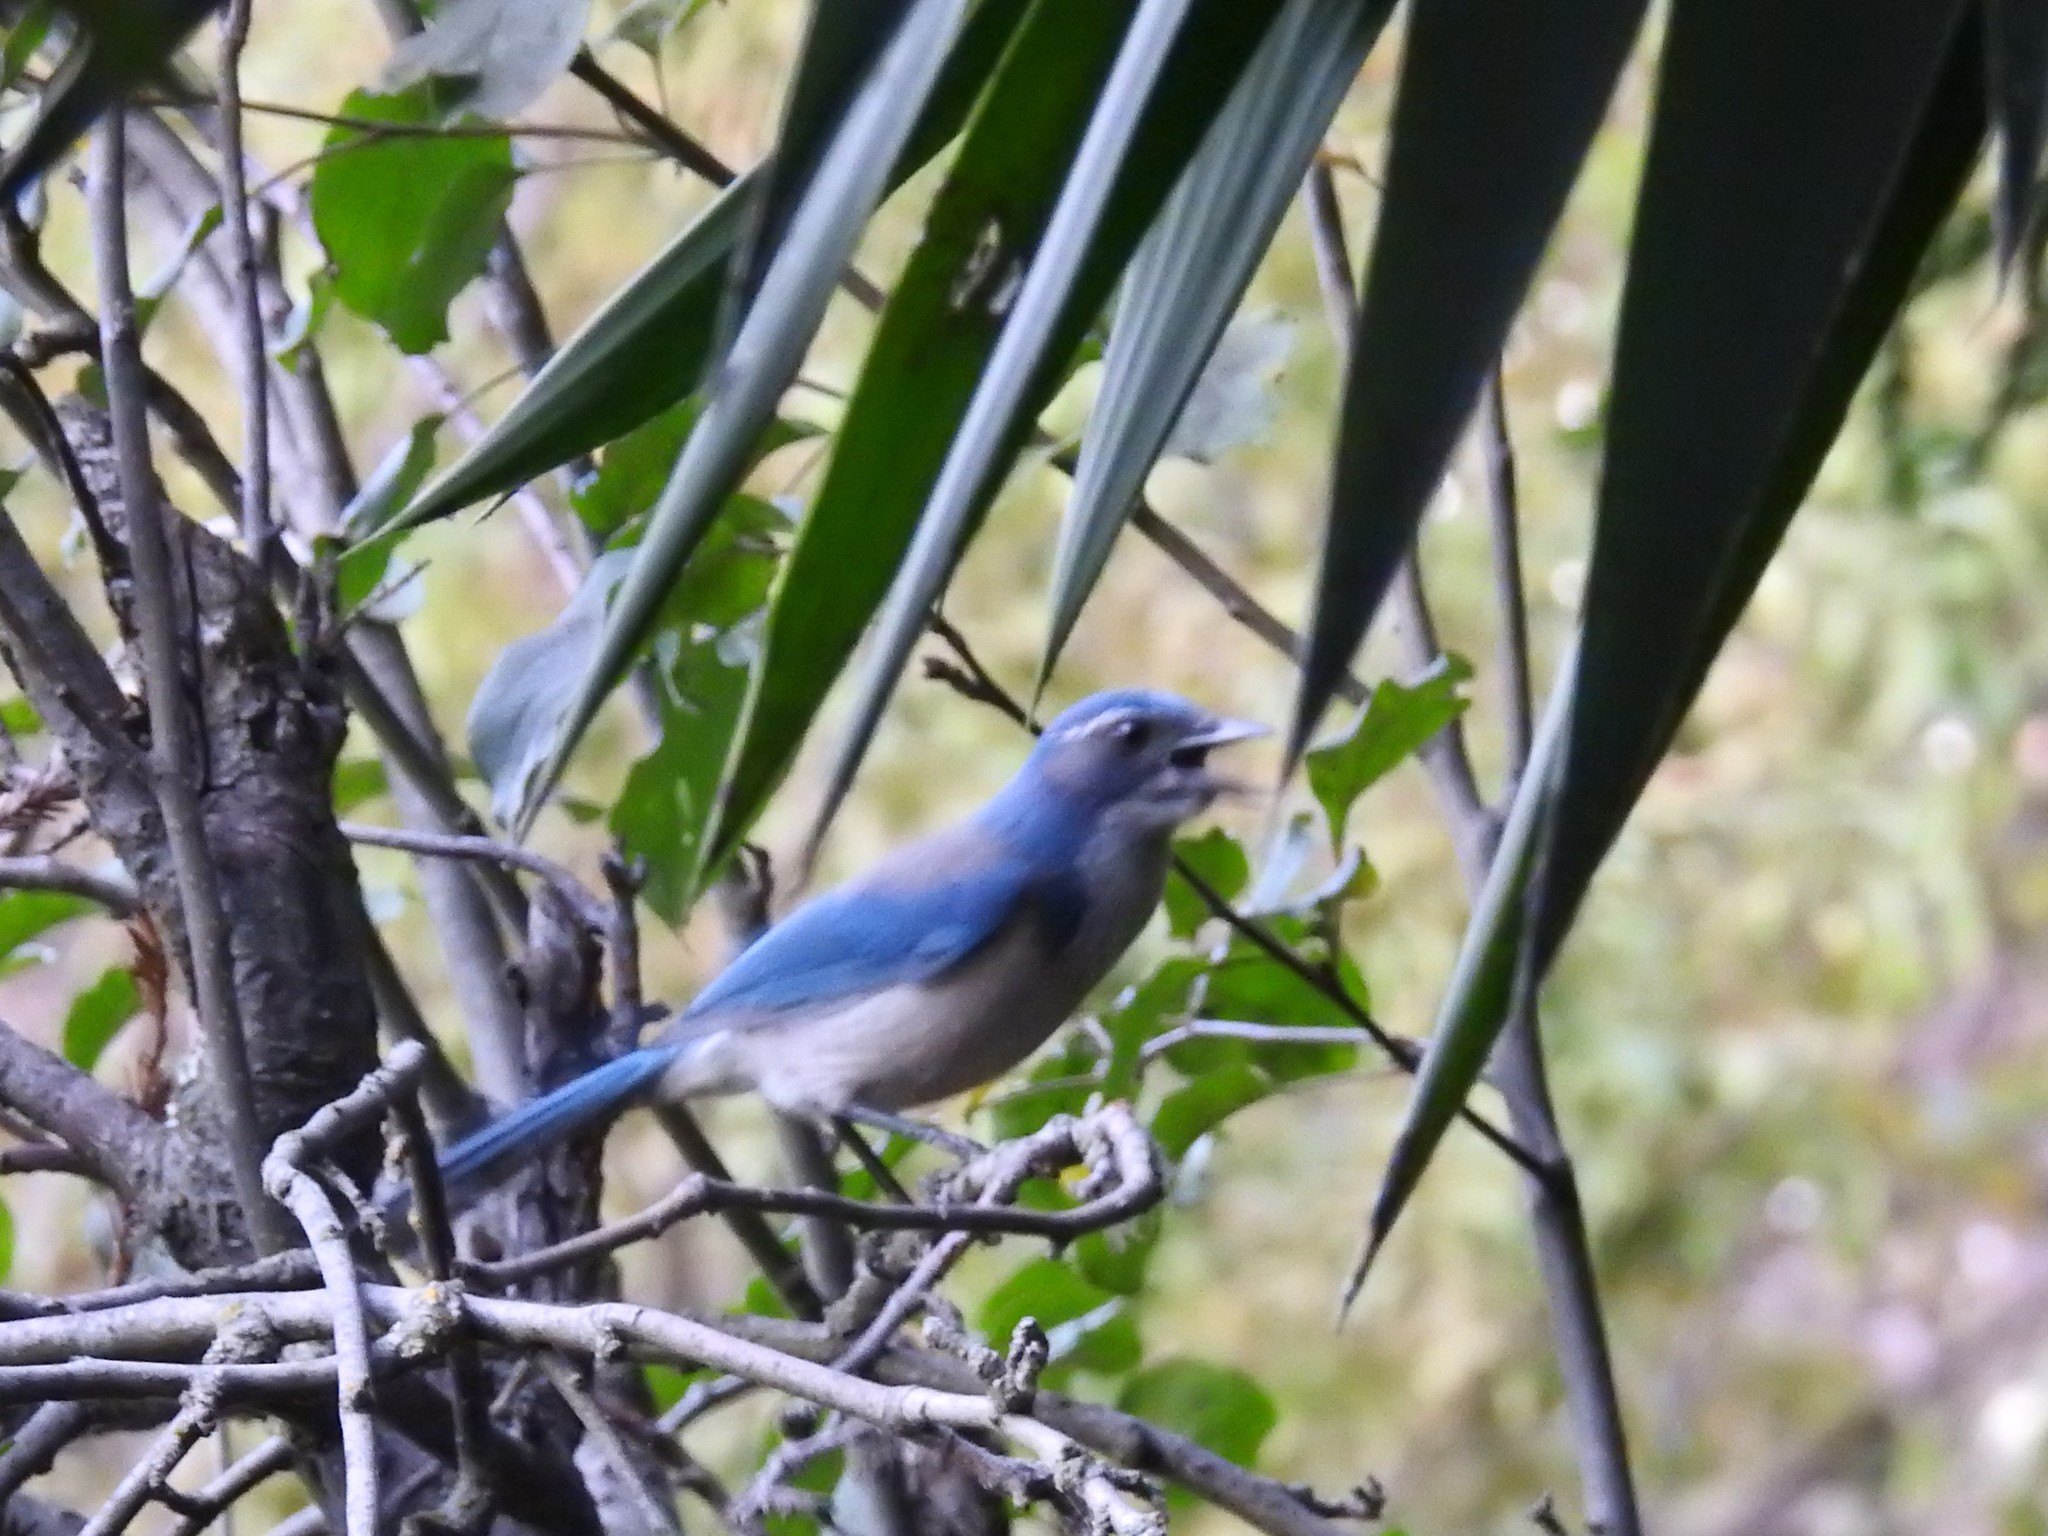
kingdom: Animalia
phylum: Chordata
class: Aves
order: Passeriformes
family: Corvidae
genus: Aphelocoma
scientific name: Aphelocoma californica
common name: California scrub-jay
